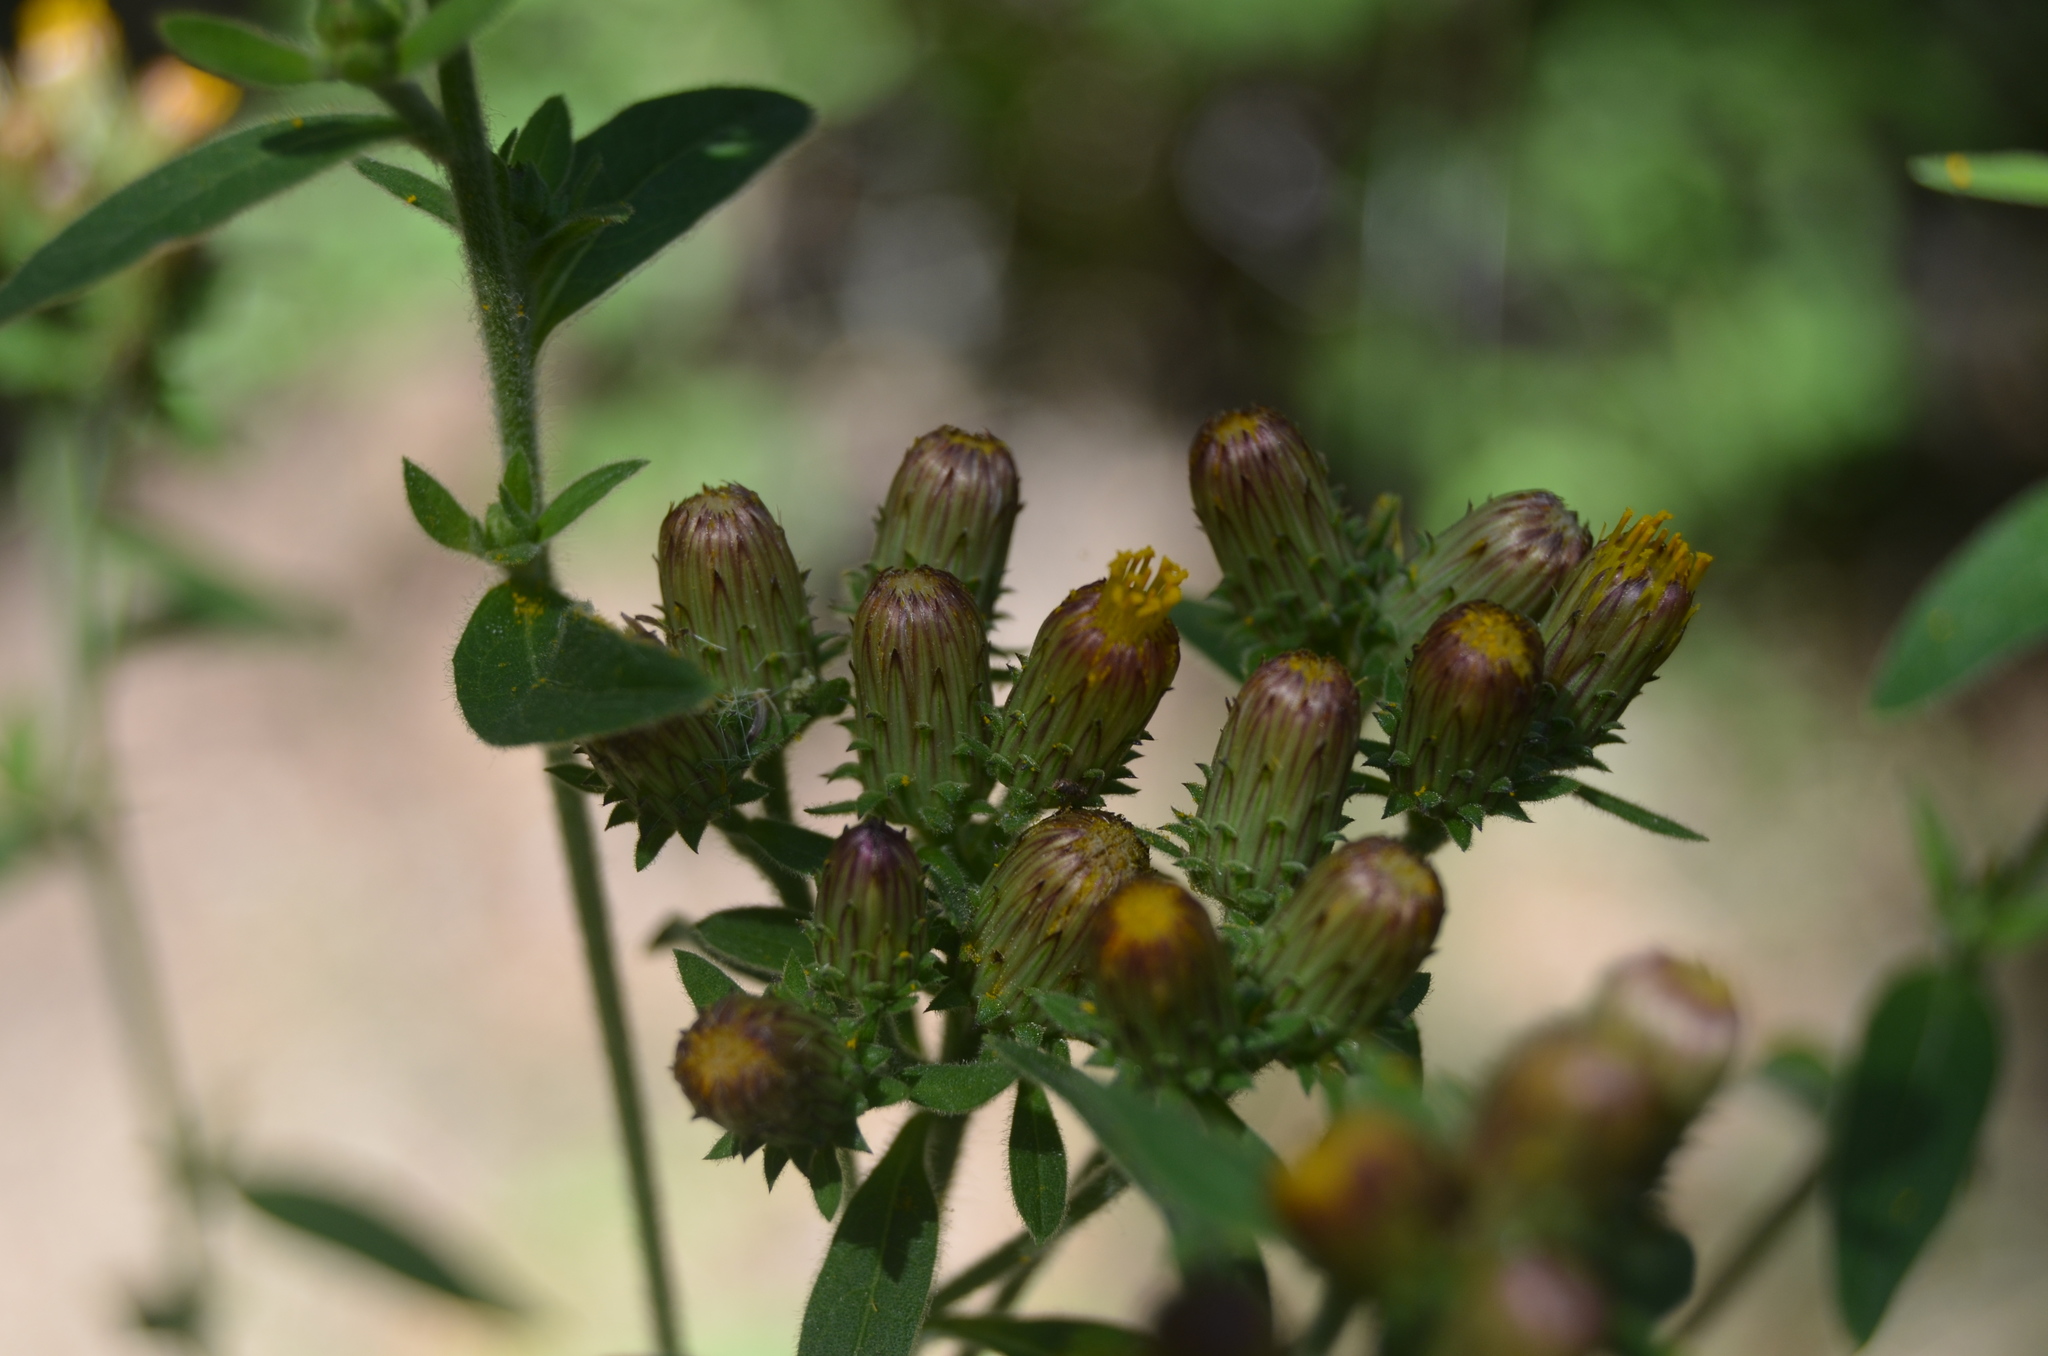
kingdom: Plantae
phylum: Tracheophyta
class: Magnoliopsida
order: Asterales
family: Asteraceae
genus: Pentanema
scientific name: Pentanema squarrosum
